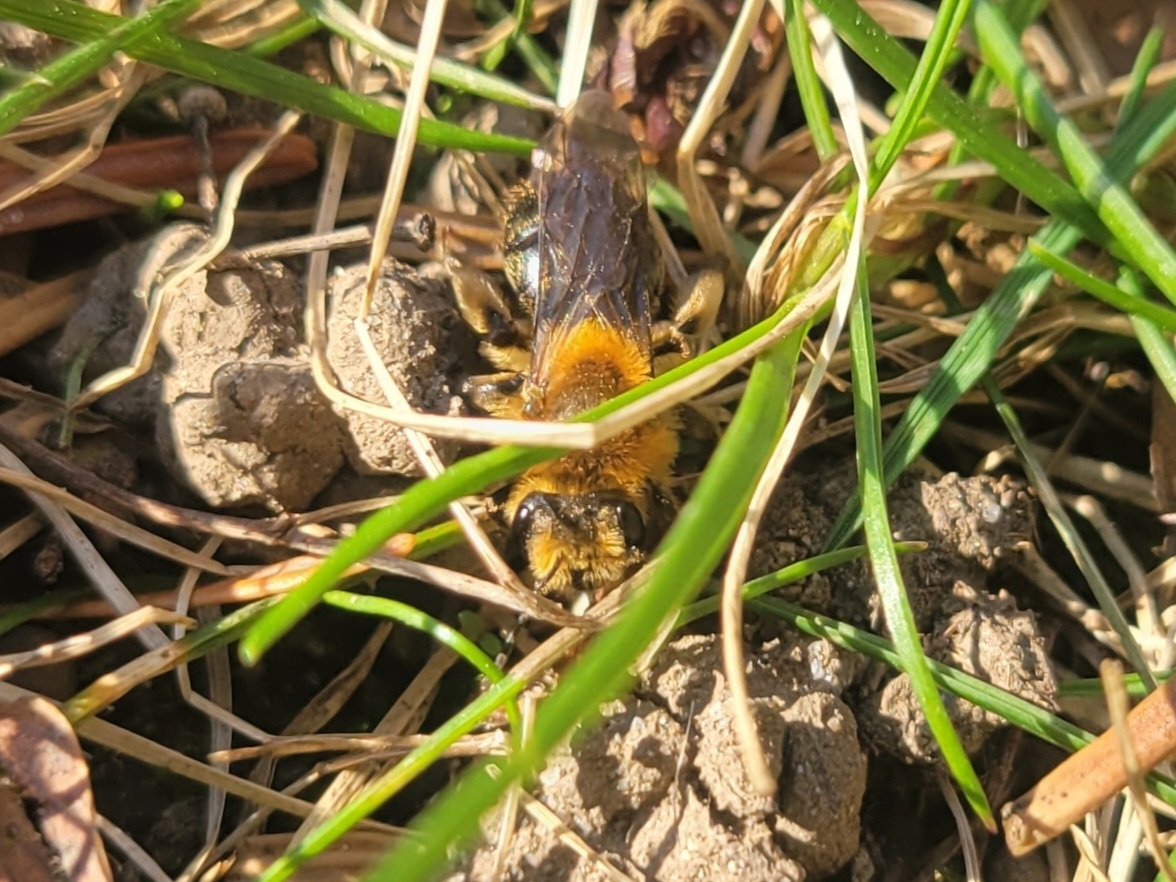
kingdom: Animalia
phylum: Arthropoda
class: Insecta
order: Hymenoptera
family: Andrenidae
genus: Andrena
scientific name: Andrena dunningi
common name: Dunning's miner
